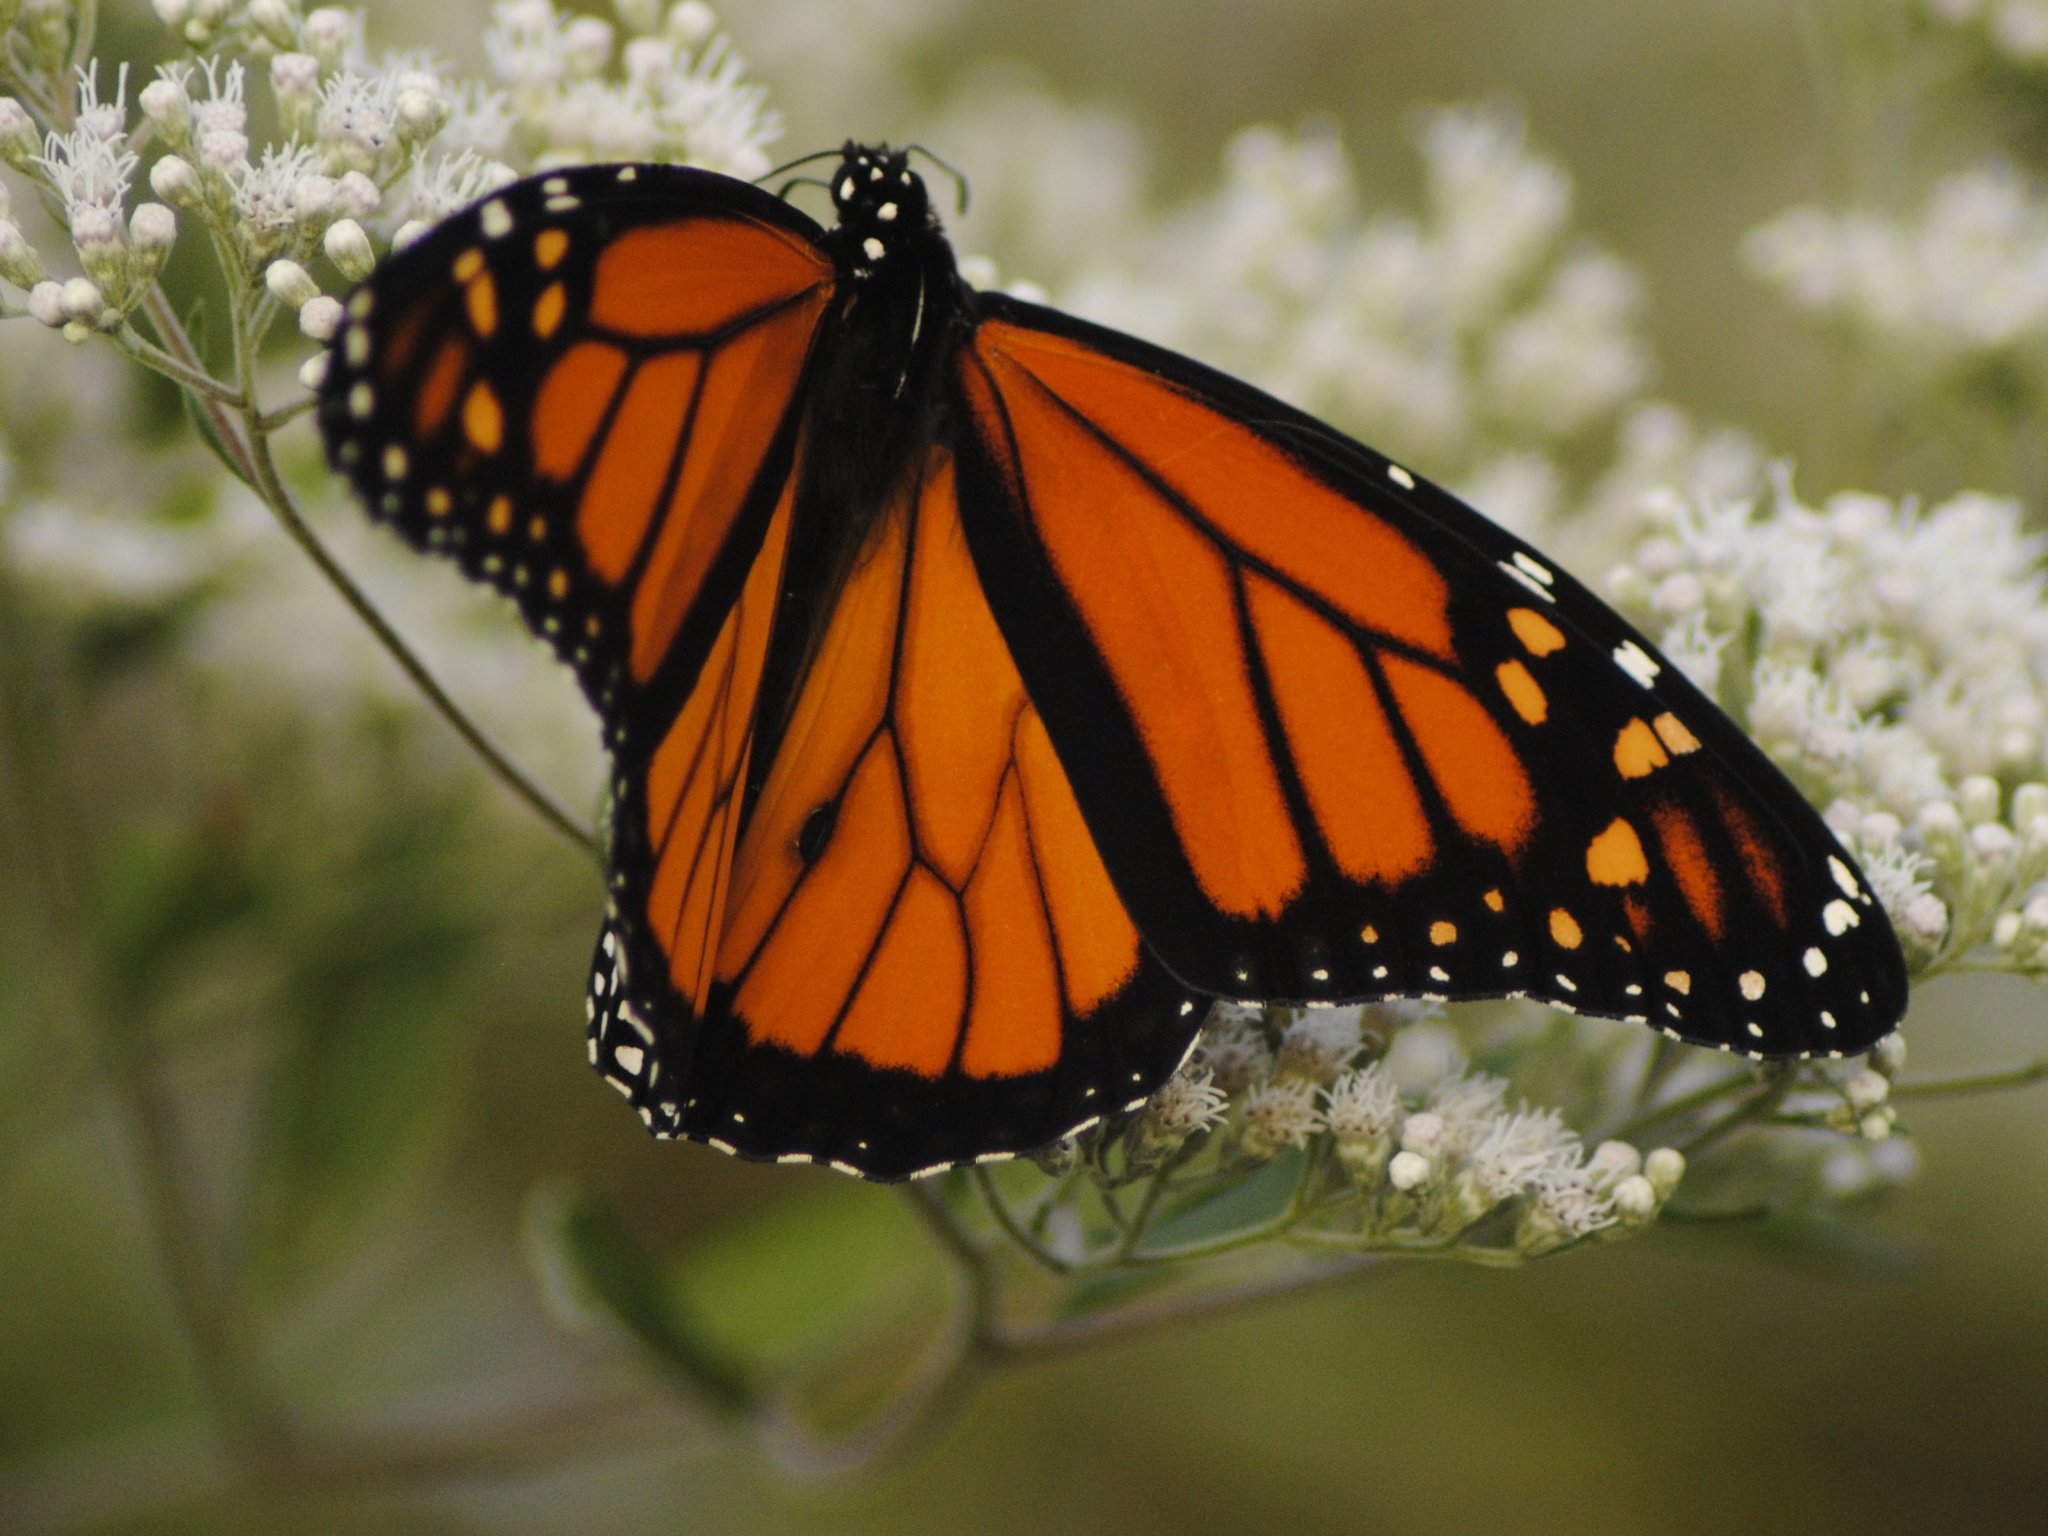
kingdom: Animalia
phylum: Arthropoda
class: Insecta
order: Lepidoptera
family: Nymphalidae
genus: Danaus
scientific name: Danaus plexippus
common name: Monarch
